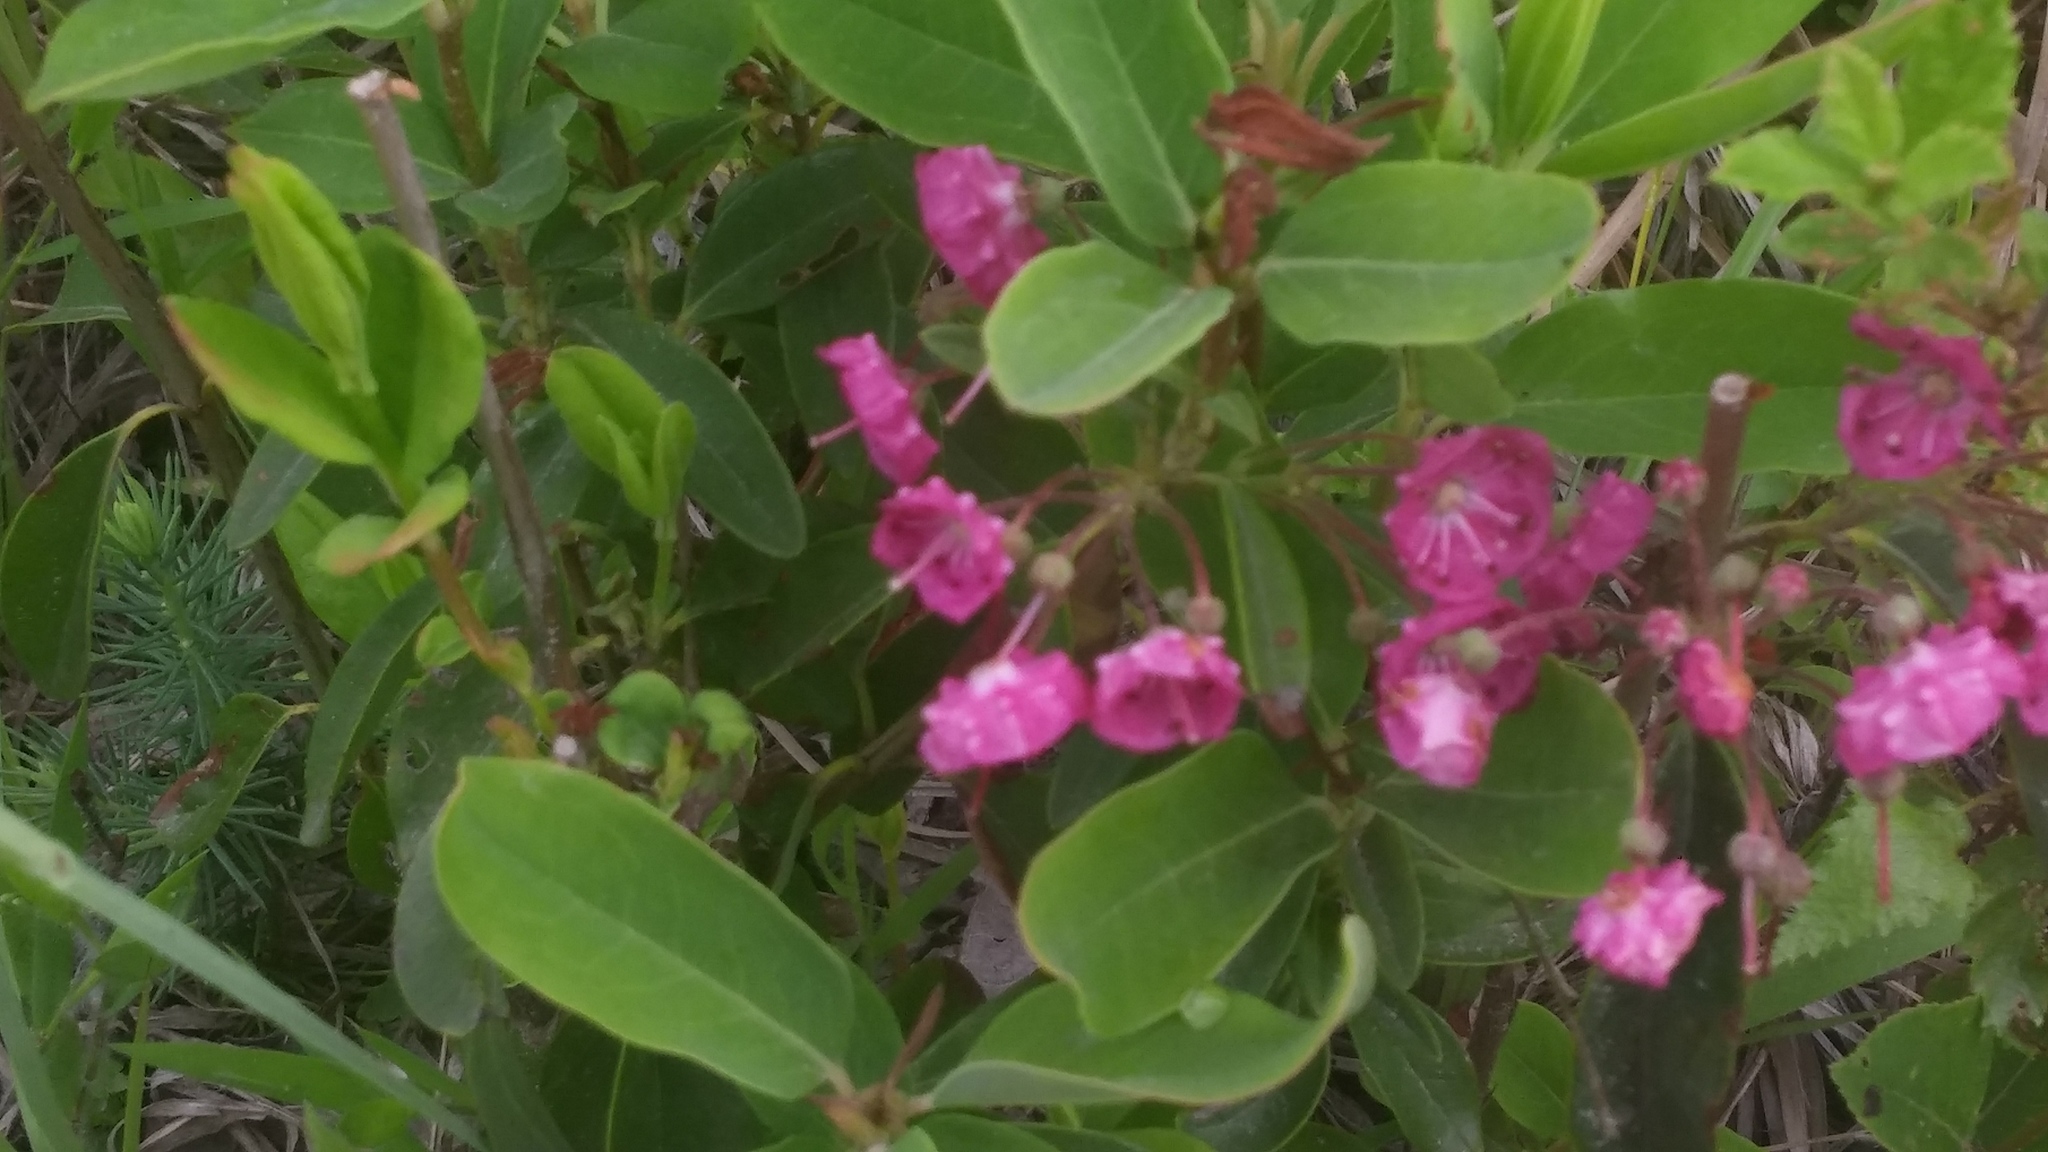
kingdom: Plantae
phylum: Tracheophyta
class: Magnoliopsida
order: Ericales
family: Ericaceae
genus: Kalmia
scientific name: Kalmia angustifolia
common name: Sheep-laurel
